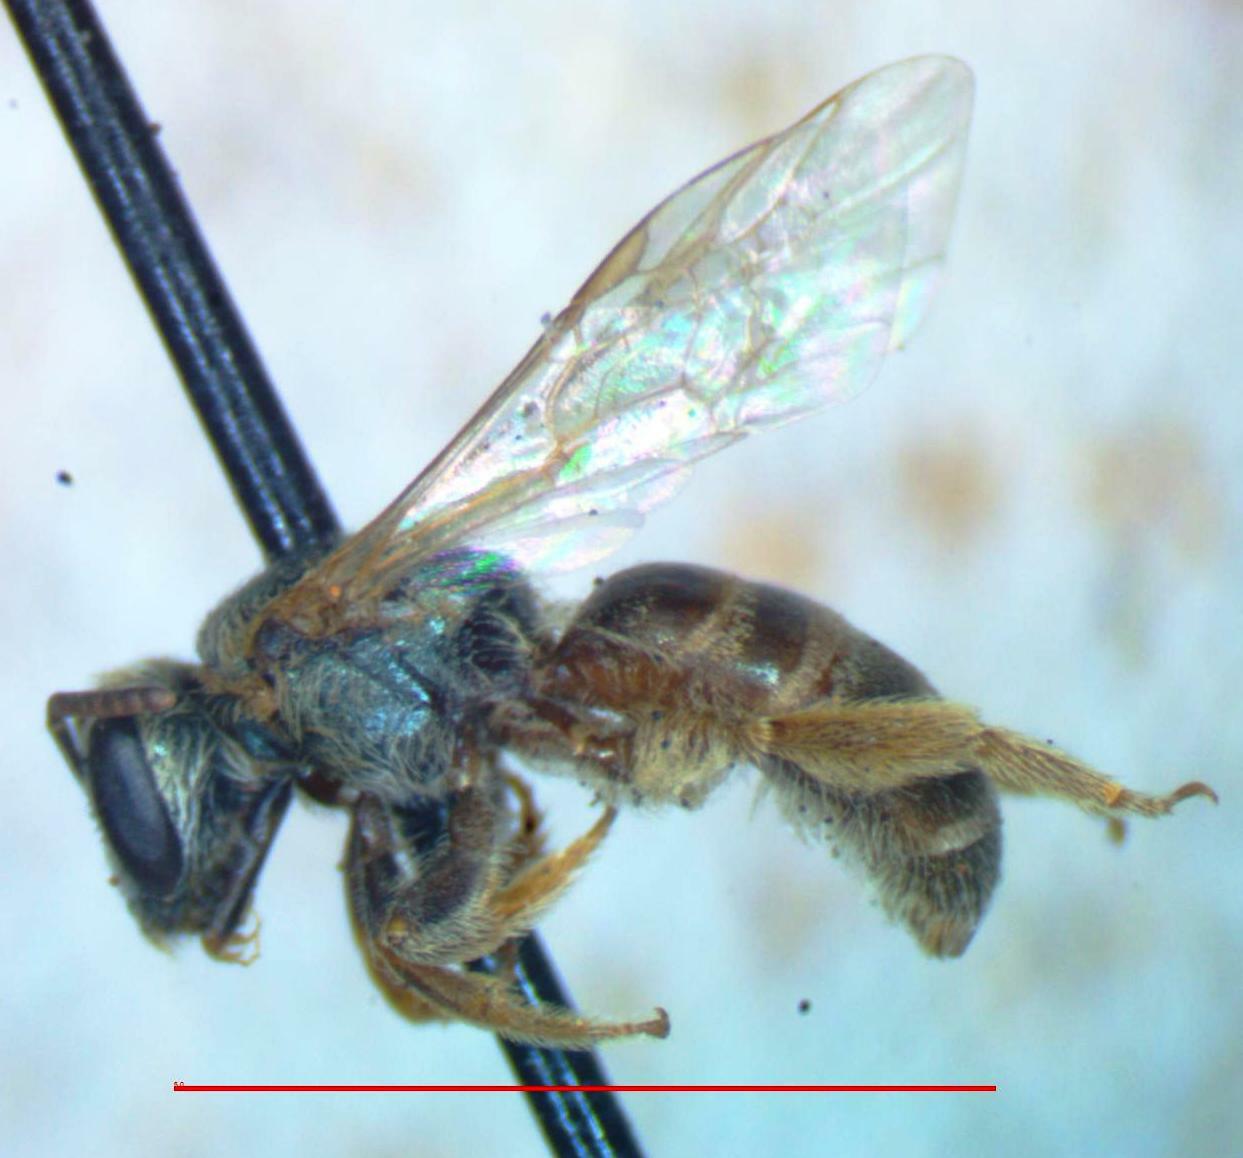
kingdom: Animalia
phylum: Arthropoda
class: Insecta
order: Hymenoptera
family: Halictidae
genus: Halictus
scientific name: Halictus hesperus
